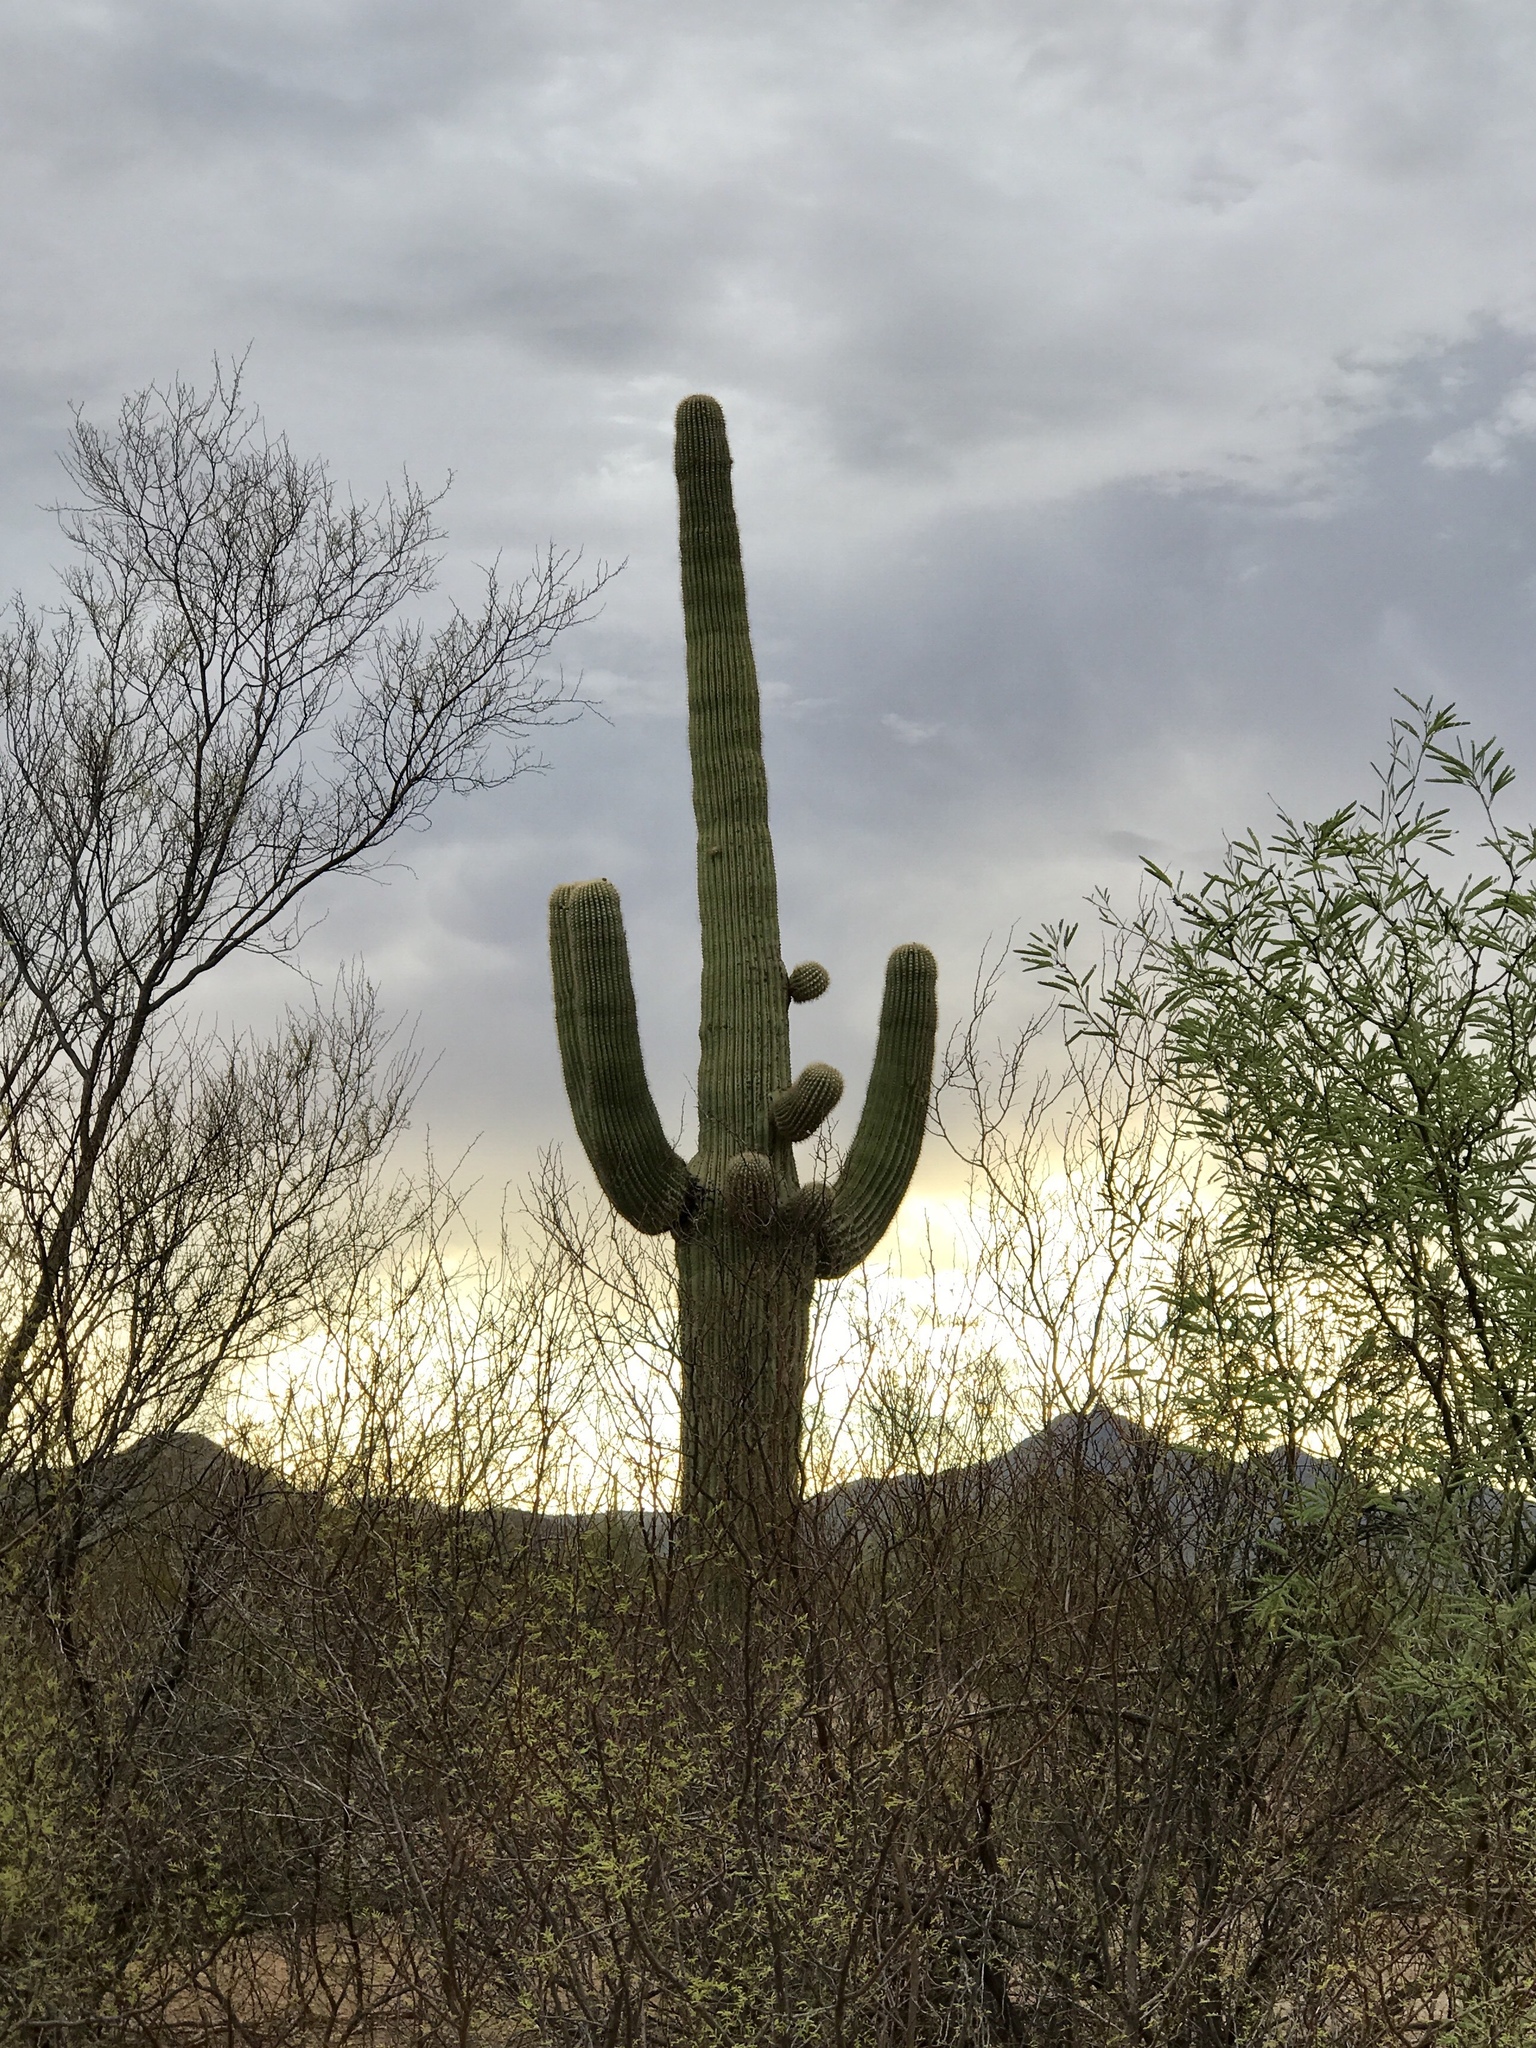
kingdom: Plantae
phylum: Tracheophyta
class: Magnoliopsida
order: Caryophyllales
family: Cactaceae
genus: Carnegiea
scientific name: Carnegiea gigantea
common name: Saguaro
